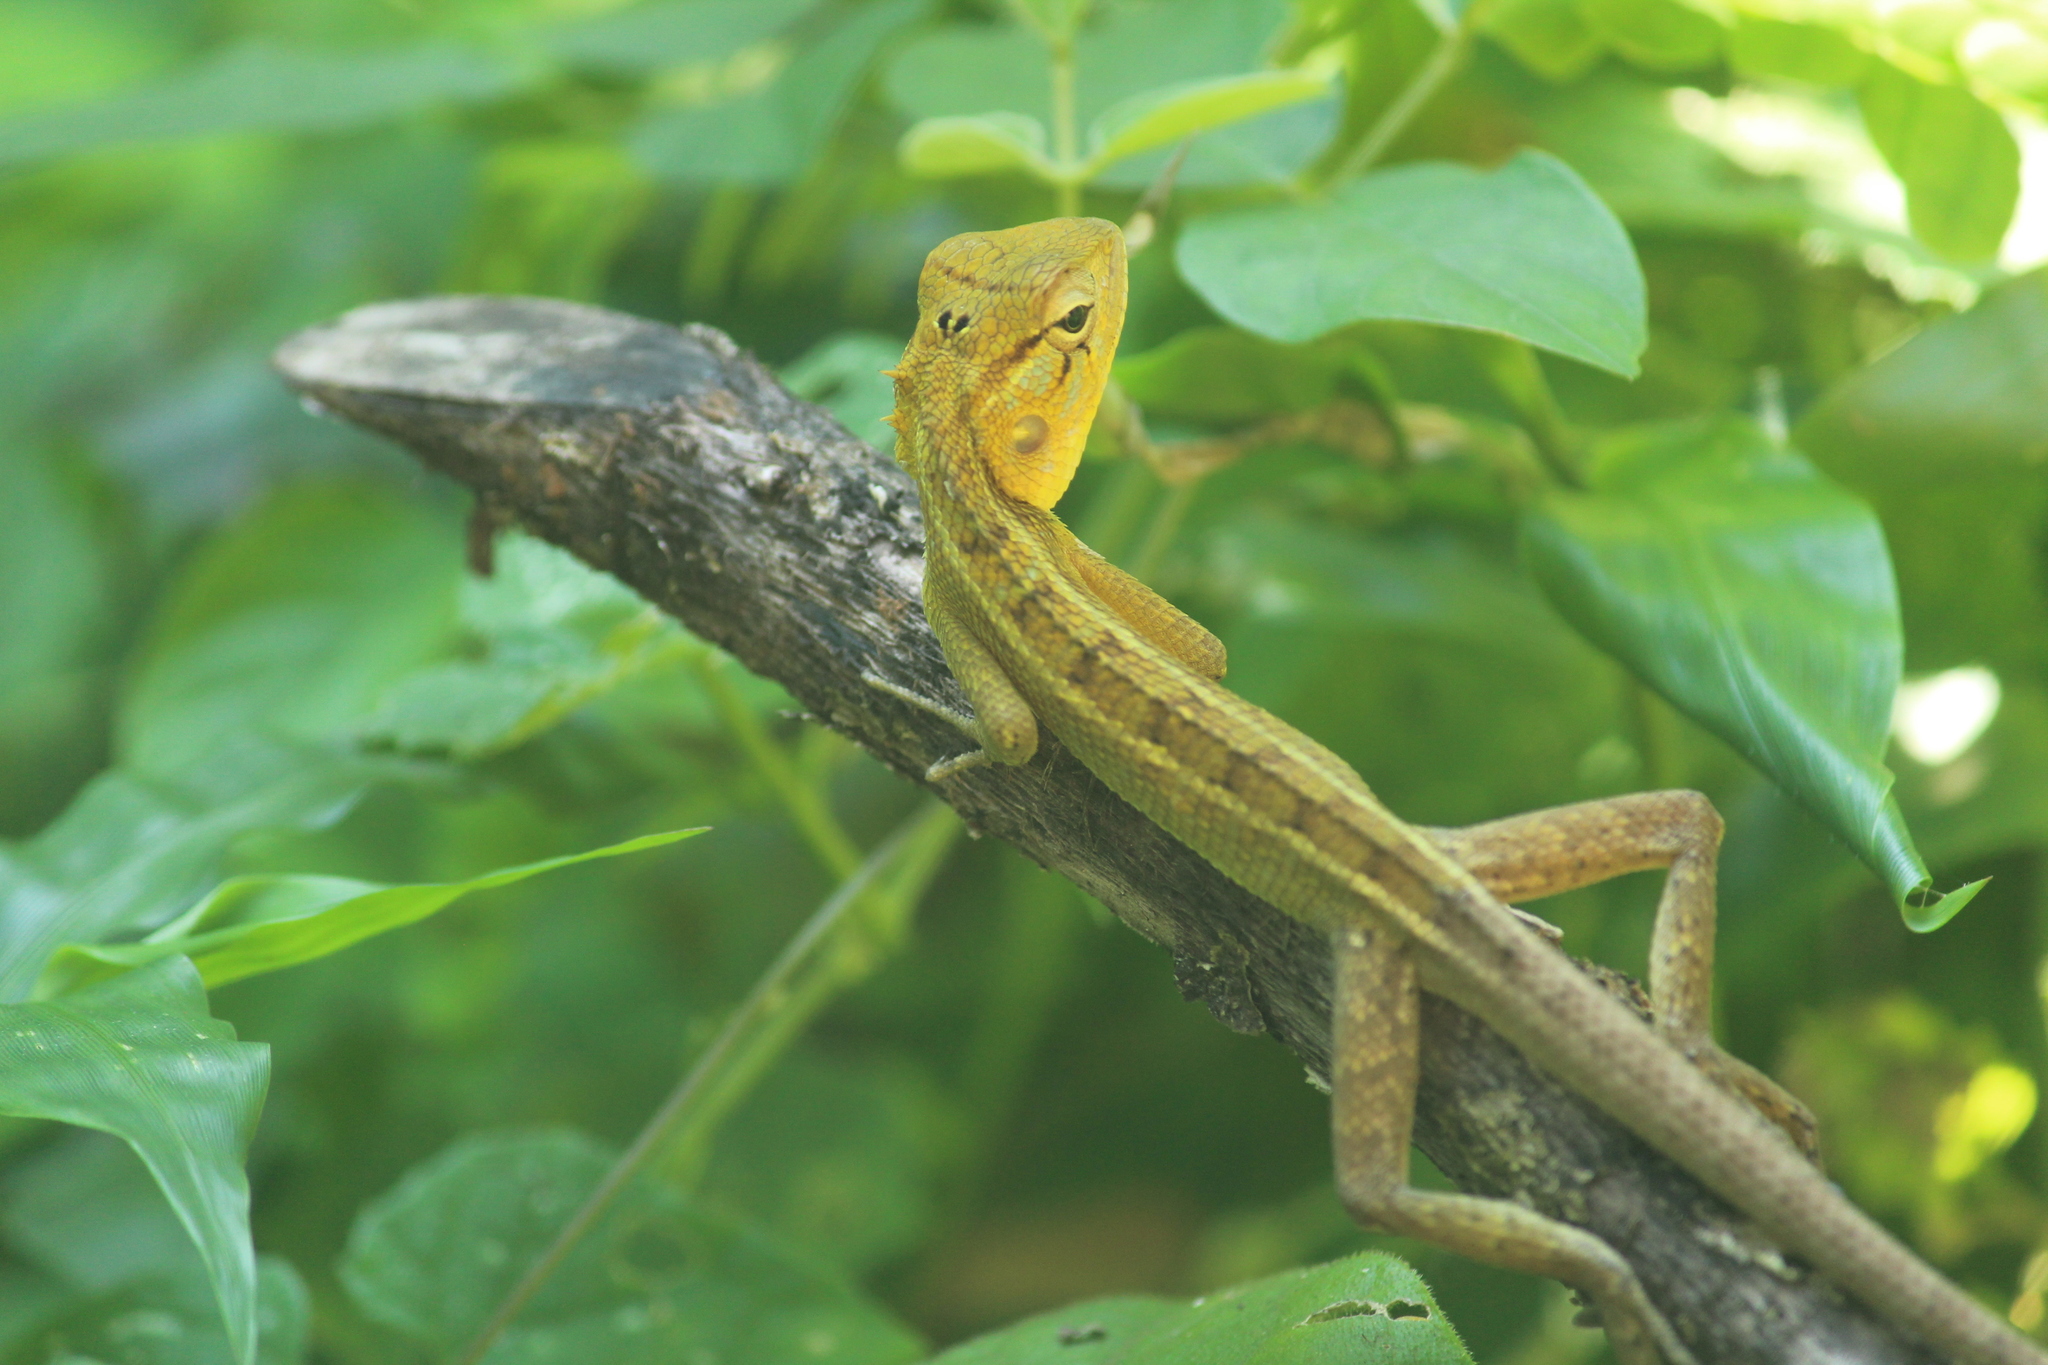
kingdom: Animalia
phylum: Chordata
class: Squamata
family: Agamidae
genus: Calotes
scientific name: Calotes versicolor
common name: Oriental garden lizard
